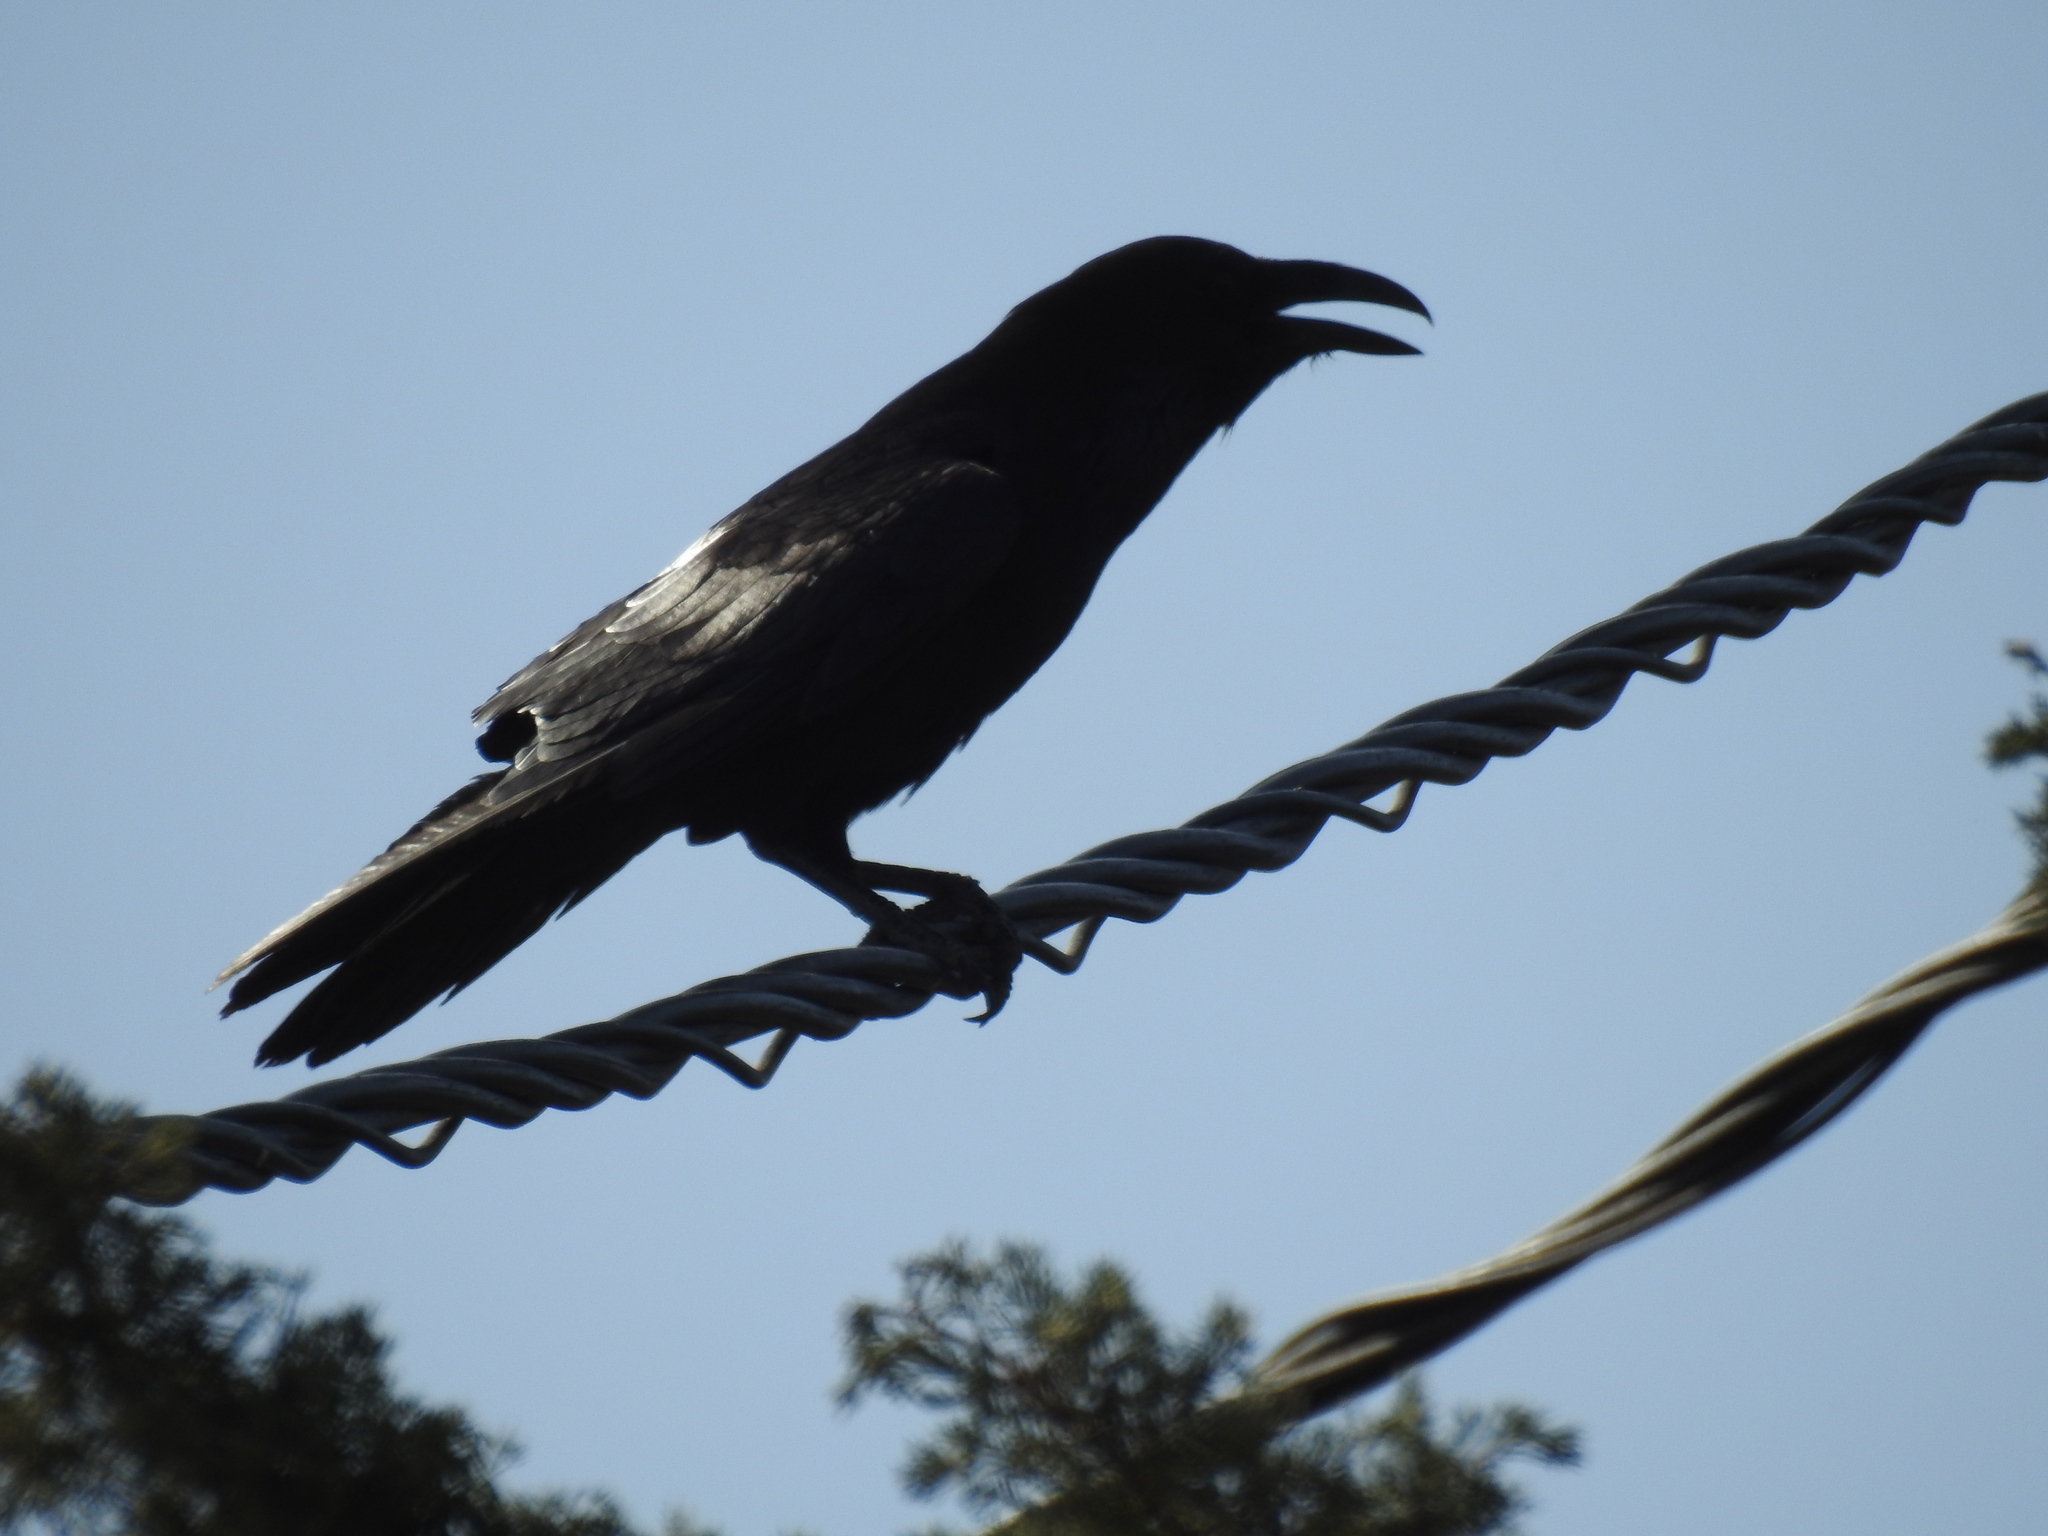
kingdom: Animalia
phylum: Chordata
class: Aves
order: Passeriformes
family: Corvidae
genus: Corvus
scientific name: Corvus corax
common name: Common raven
